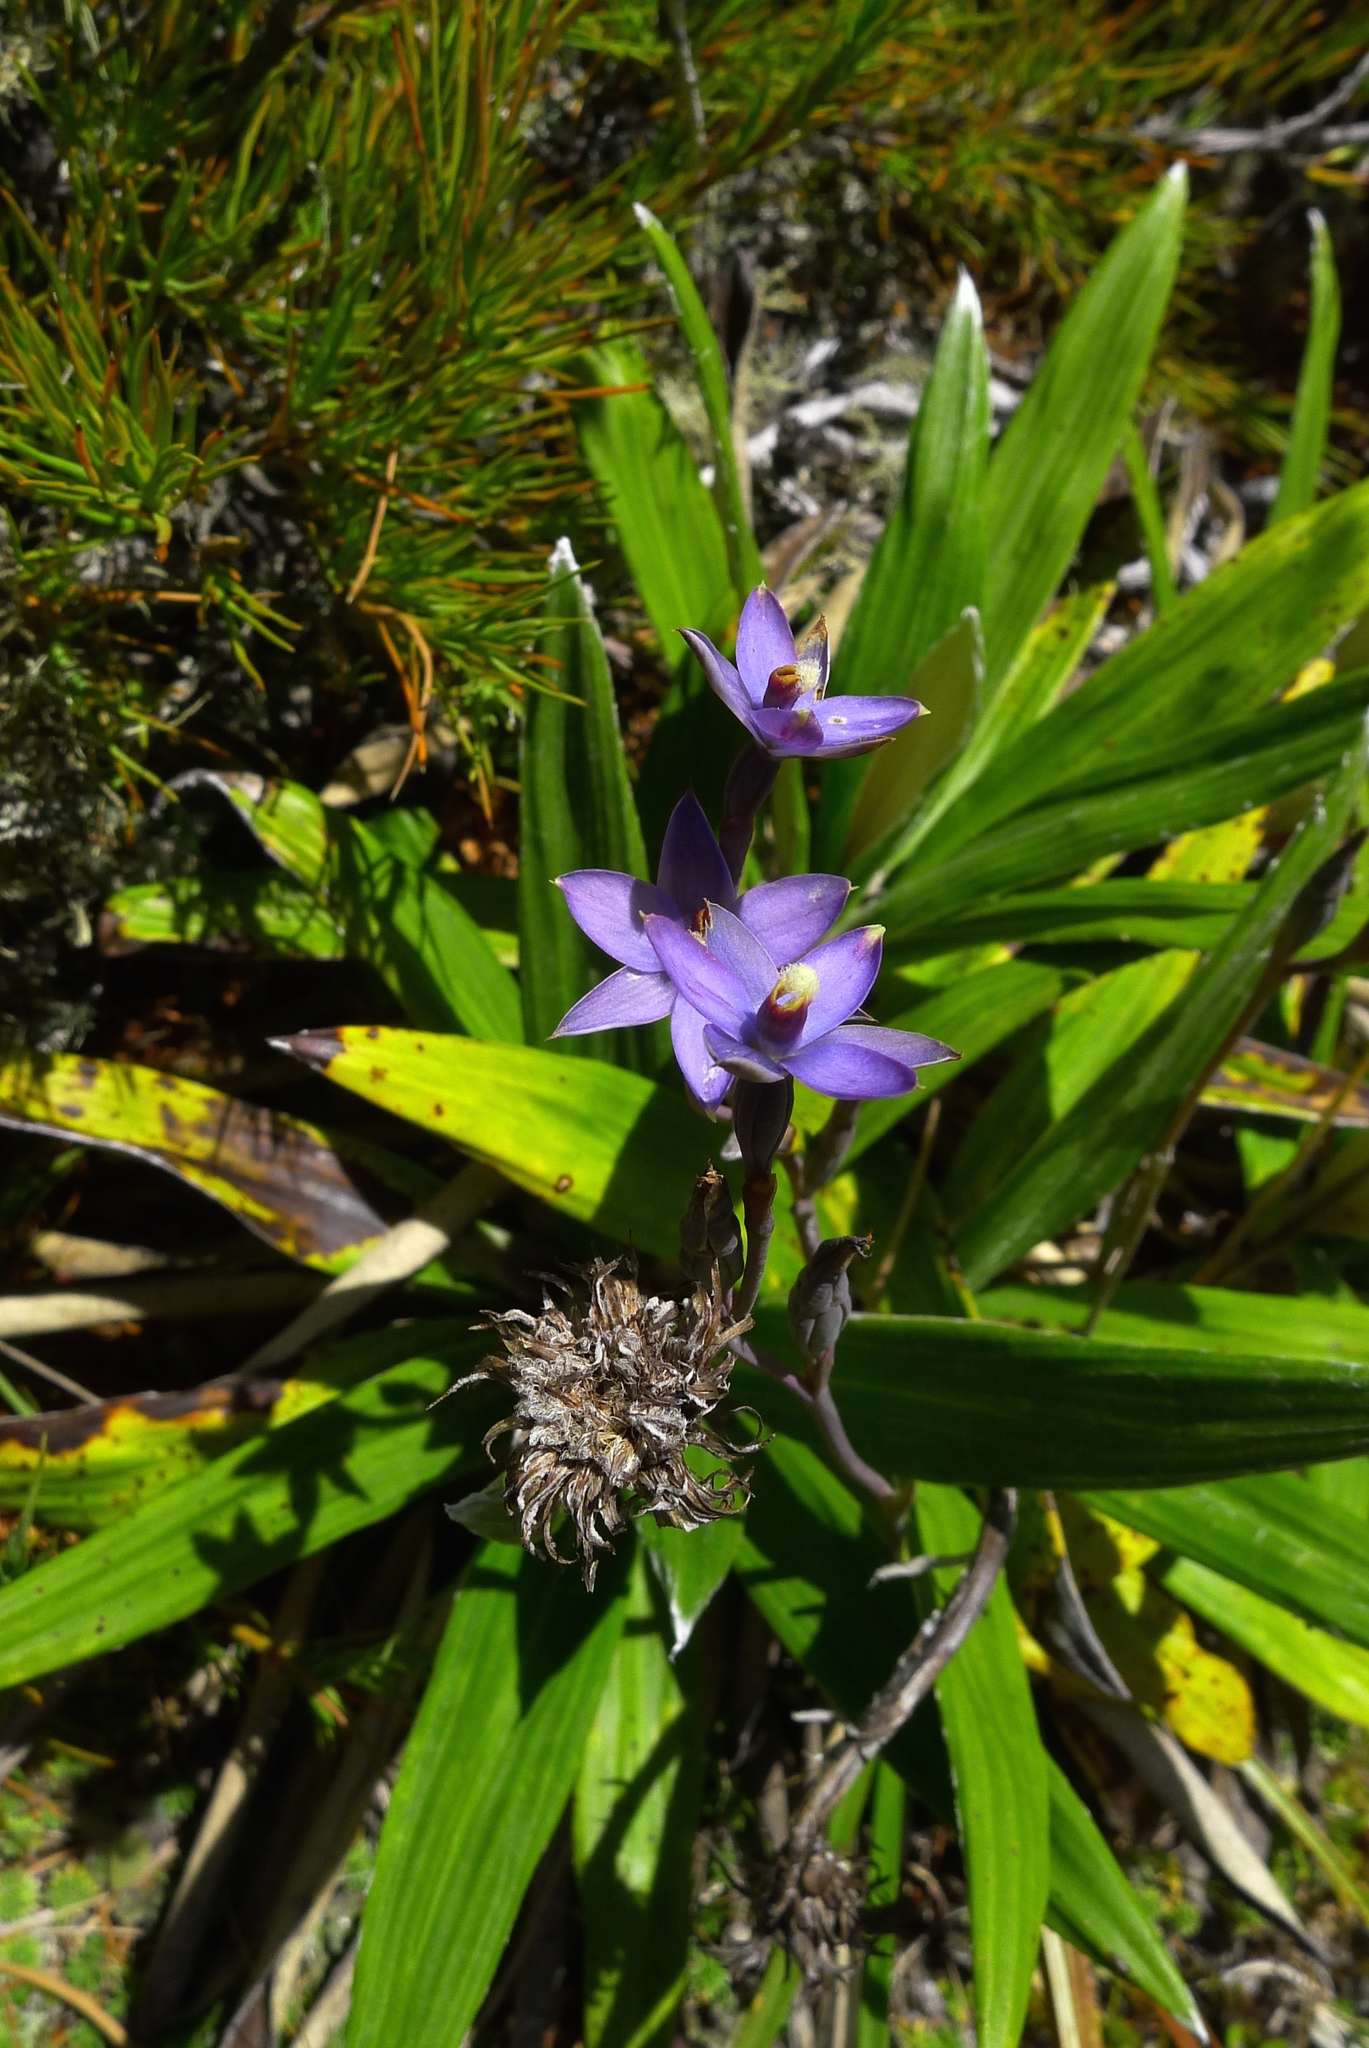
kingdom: Plantae
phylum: Tracheophyta
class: Liliopsida
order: Asparagales
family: Orchidaceae
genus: Thelymitra
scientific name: Thelymitra hatchii
